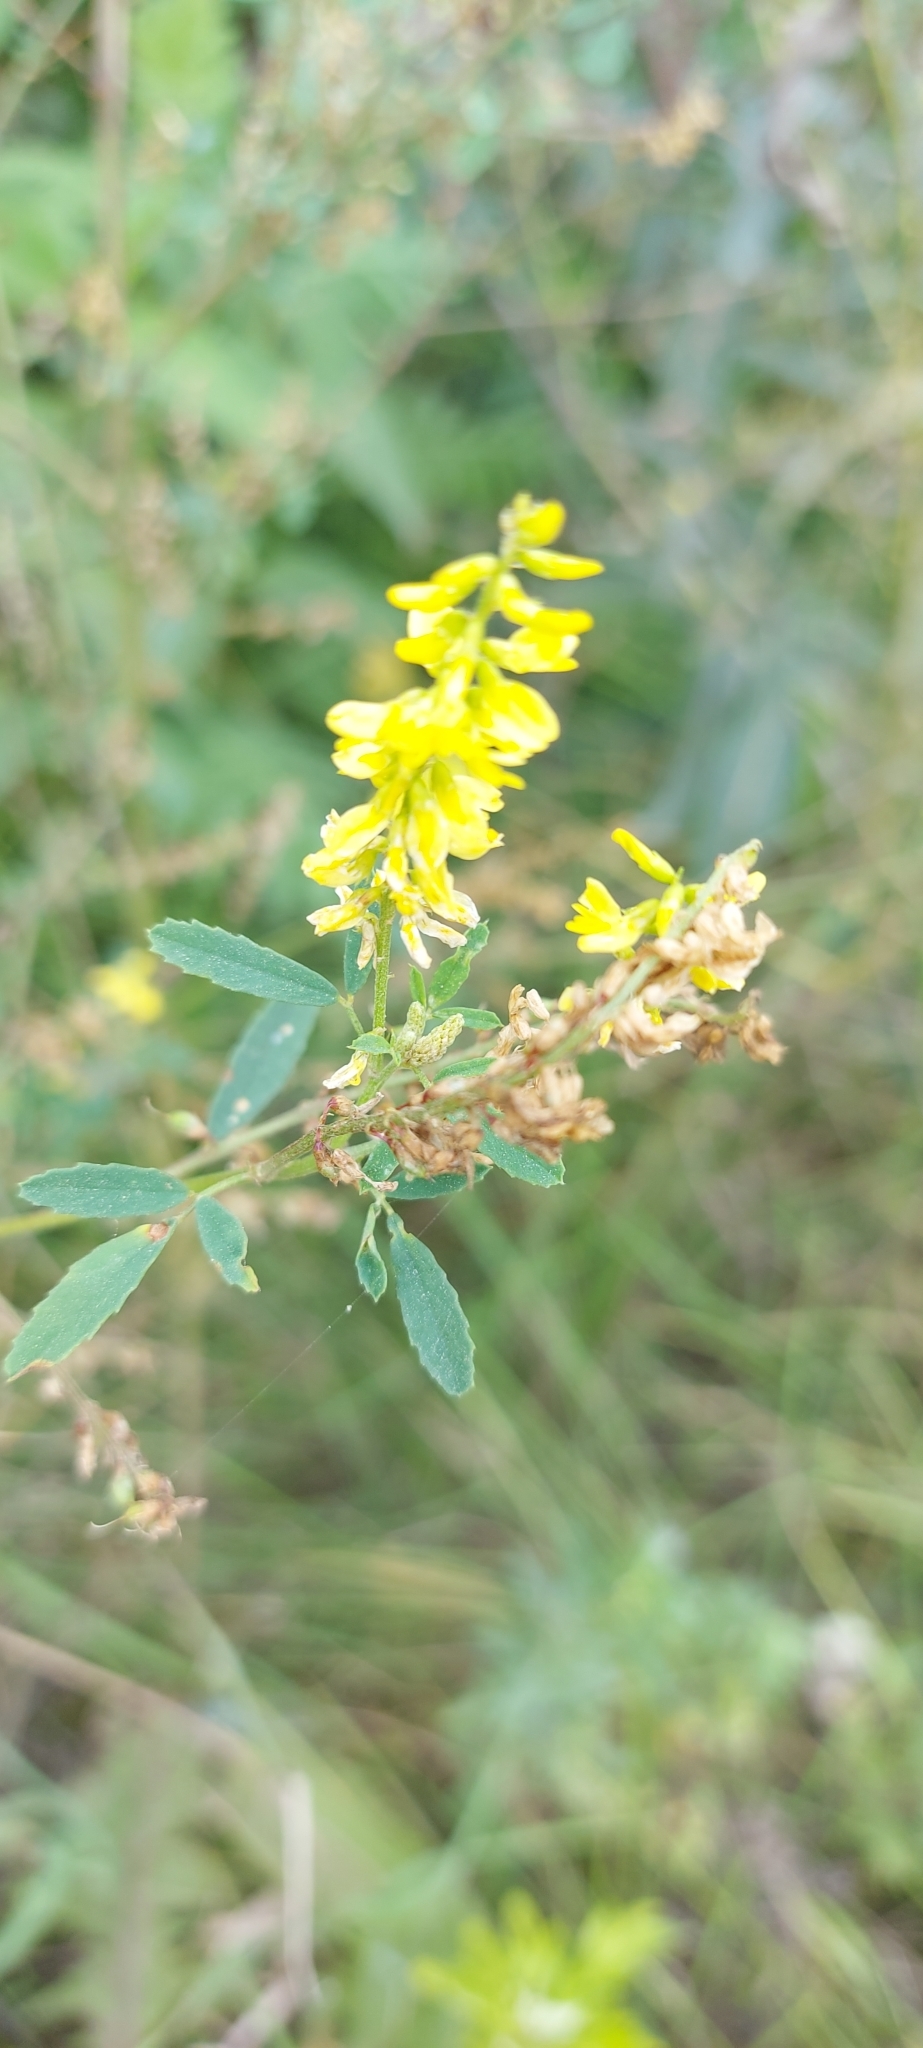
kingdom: Plantae
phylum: Tracheophyta
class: Magnoliopsida
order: Fabales
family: Fabaceae
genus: Melilotus
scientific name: Melilotus officinalis
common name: Sweetclover
